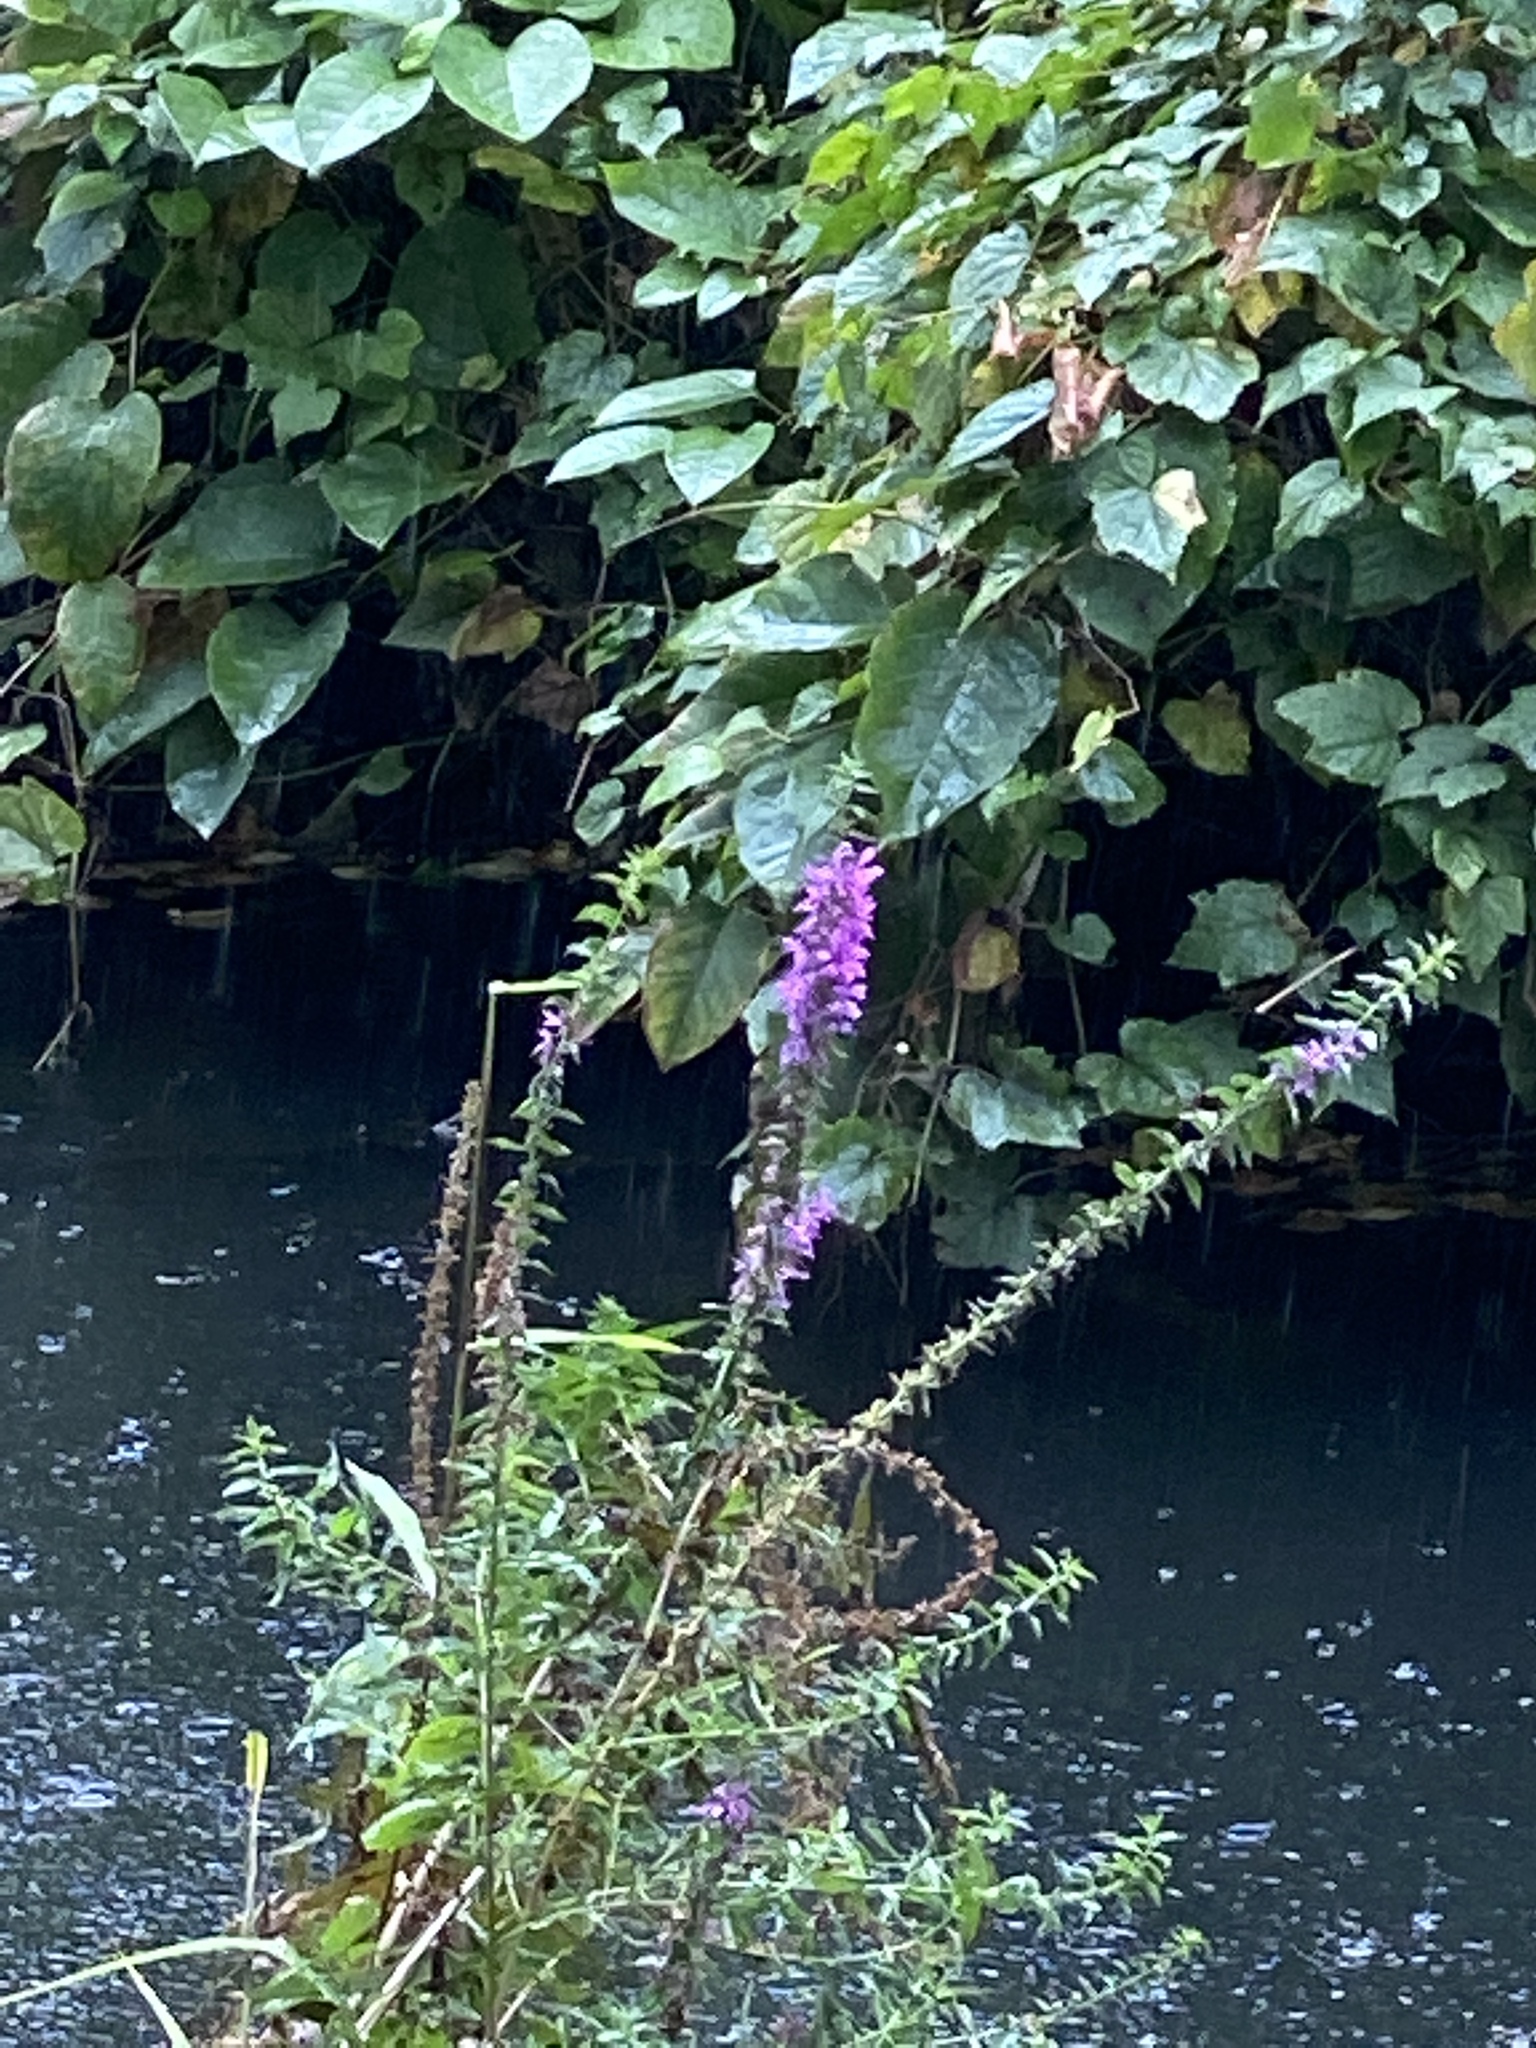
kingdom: Plantae
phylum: Tracheophyta
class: Magnoliopsida
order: Myrtales
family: Lythraceae
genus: Lythrum
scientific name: Lythrum salicaria
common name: Purple loosestrife
